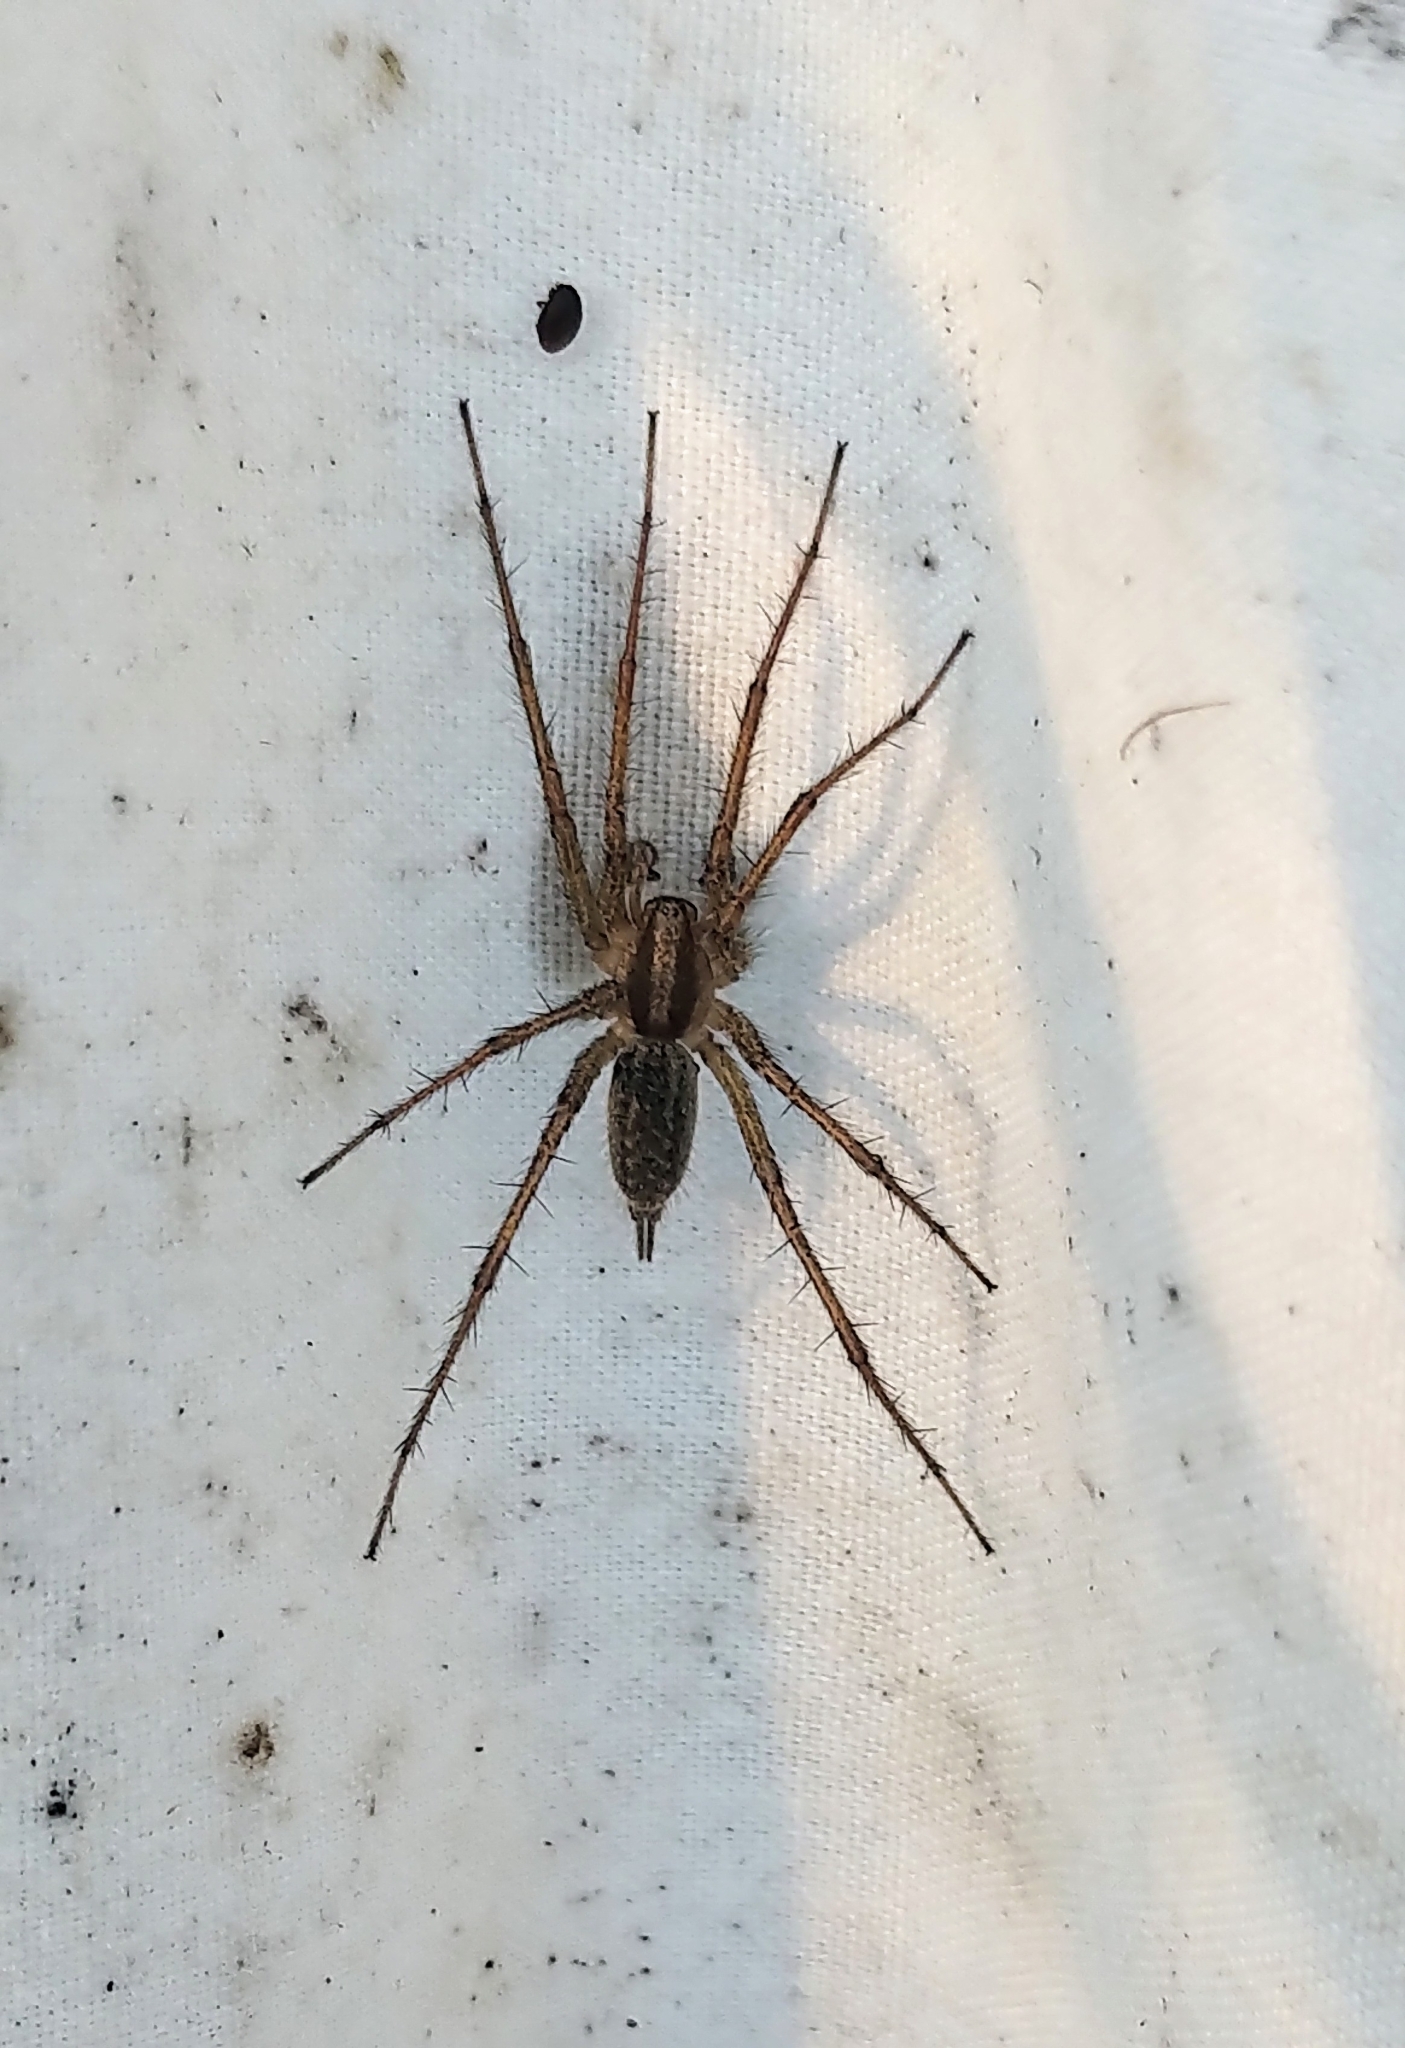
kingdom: Animalia
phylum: Arthropoda
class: Arachnida
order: Araneae
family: Agelenidae
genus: Agelenopsis
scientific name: Agelenopsis
